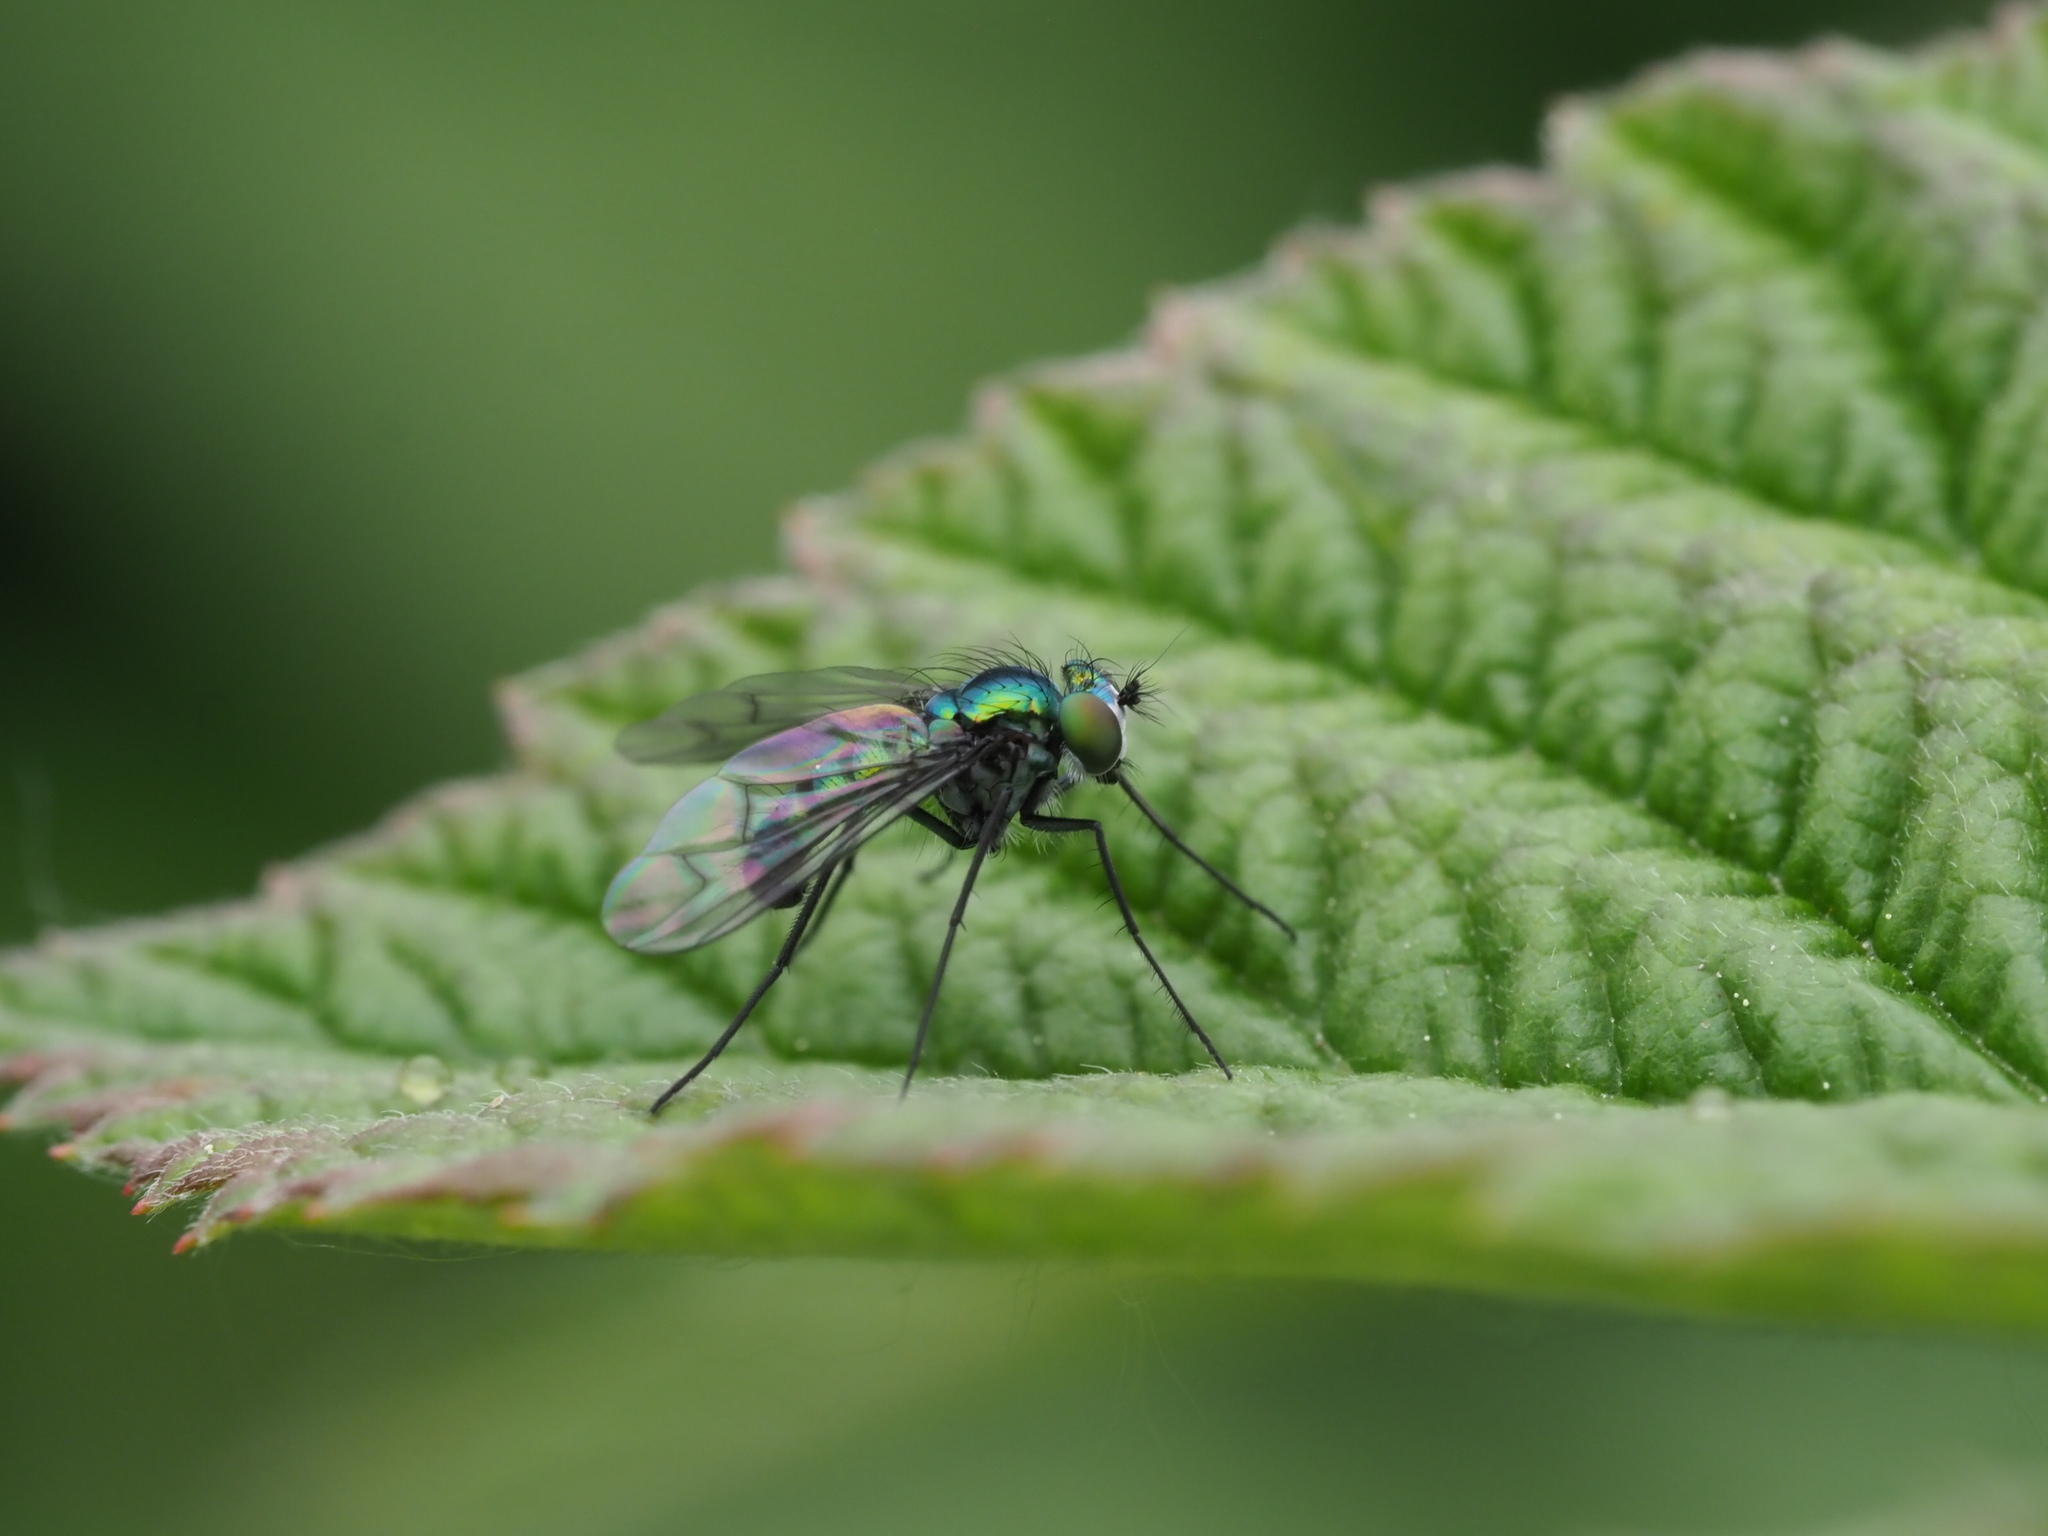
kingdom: Animalia
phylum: Arthropoda
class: Insecta
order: Diptera
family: Dolichopodidae
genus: Condylostylus
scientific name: Condylostylus occidentalis
